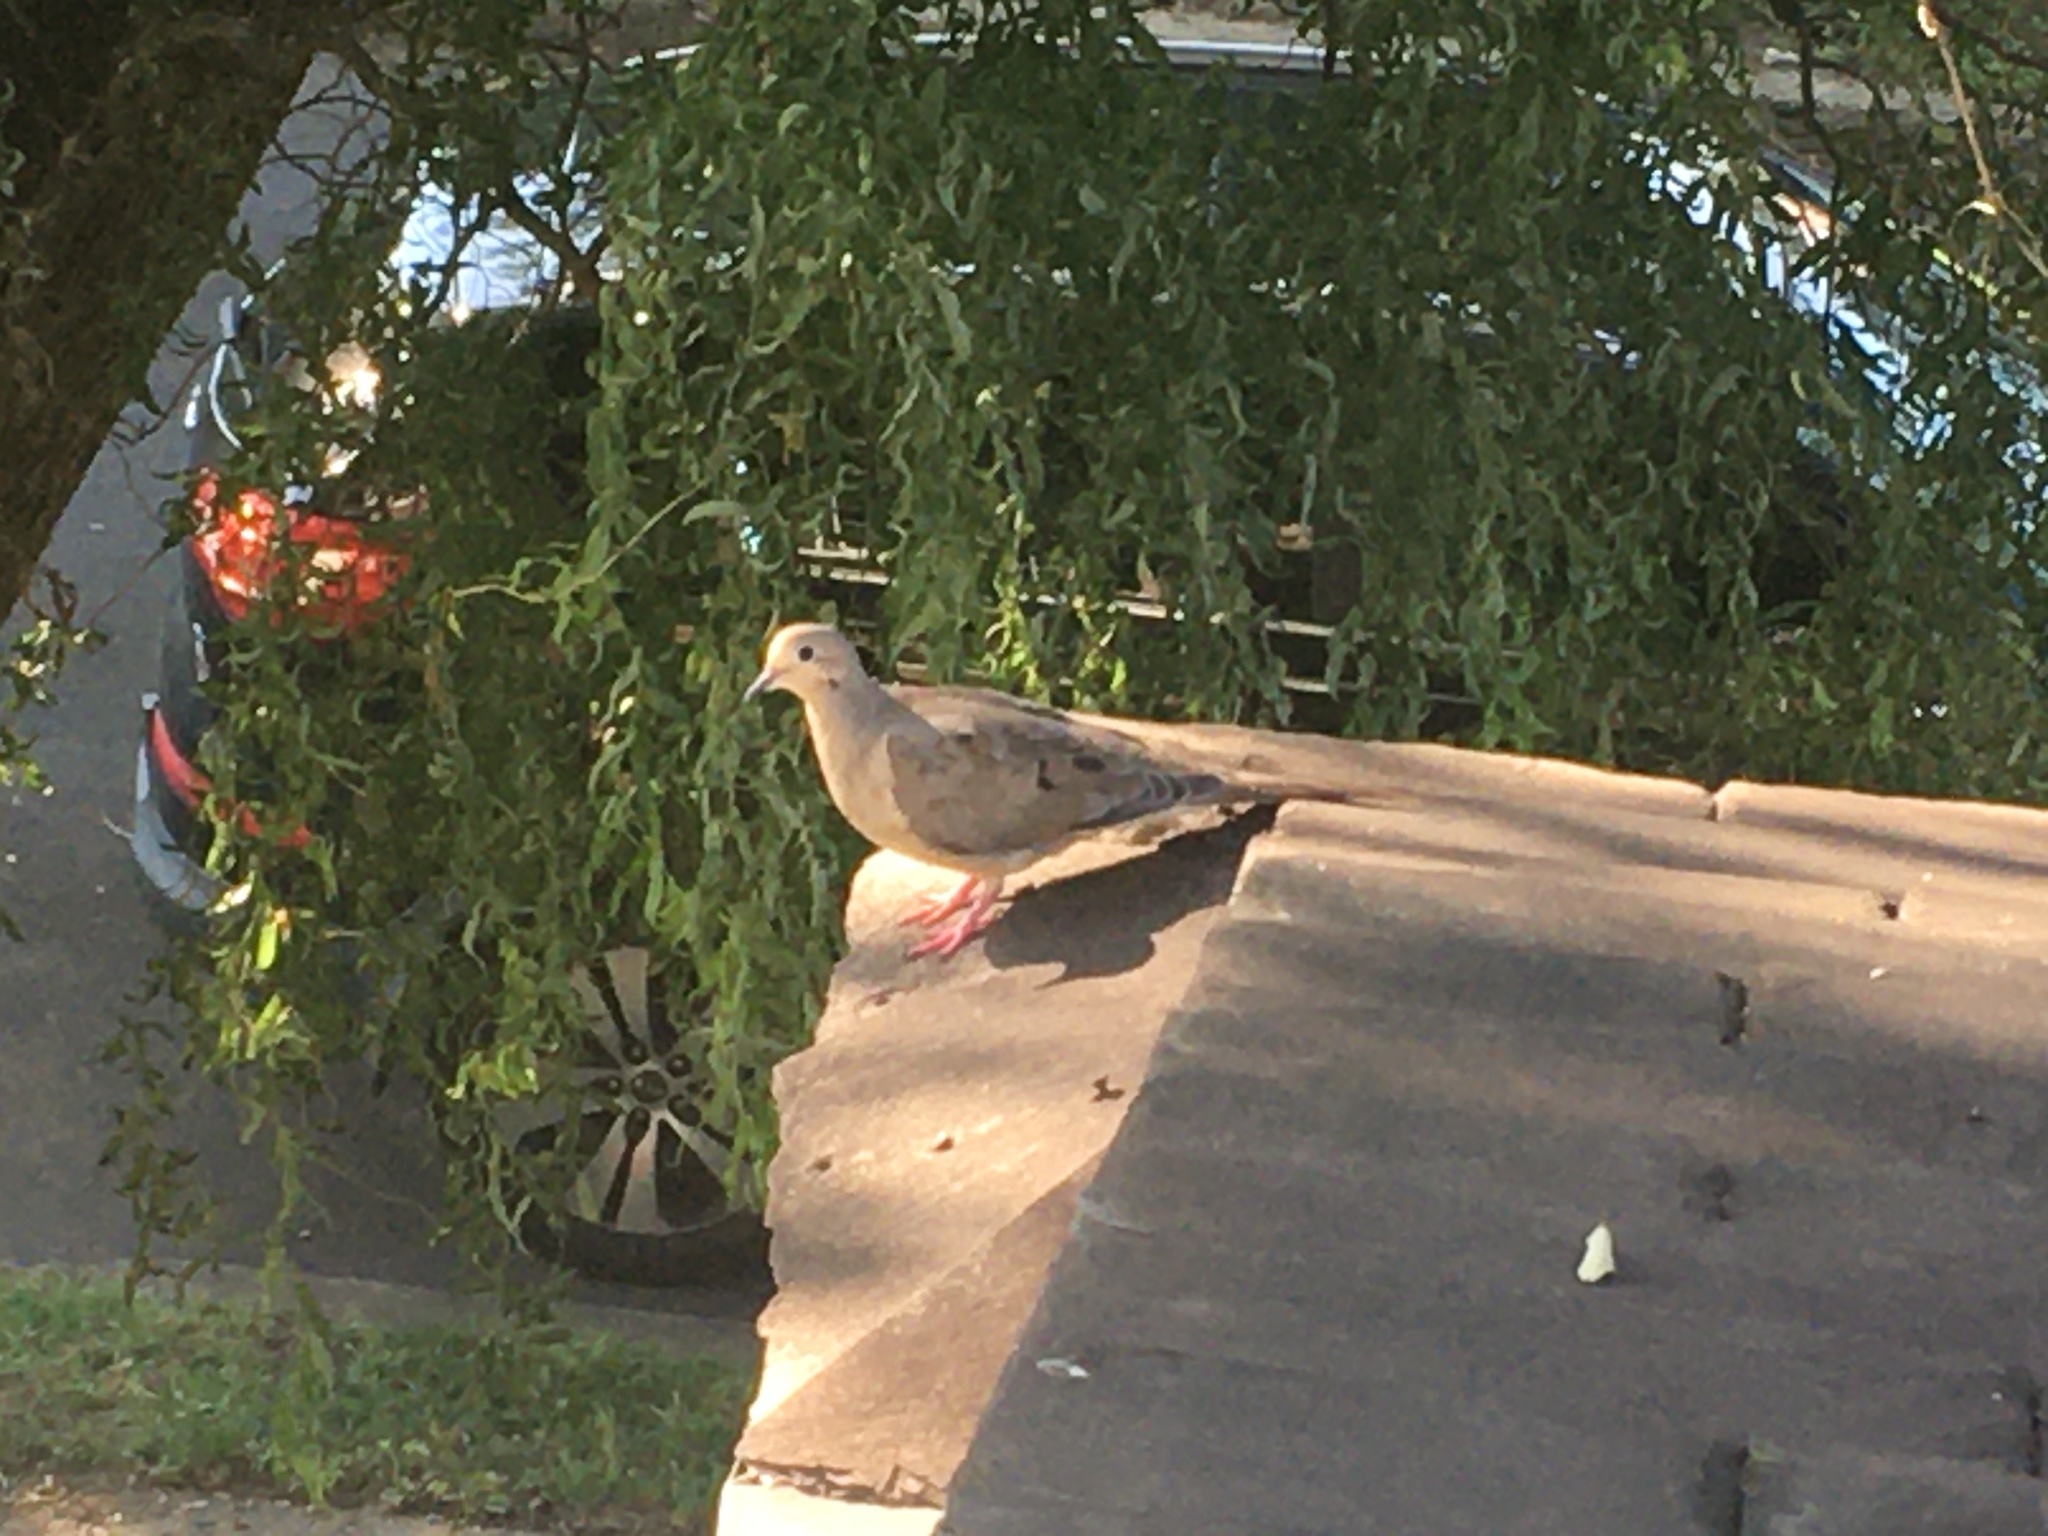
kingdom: Animalia
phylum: Chordata
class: Aves
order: Columbiformes
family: Columbidae
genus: Zenaida
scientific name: Zenaida macroura
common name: Mourning dove
